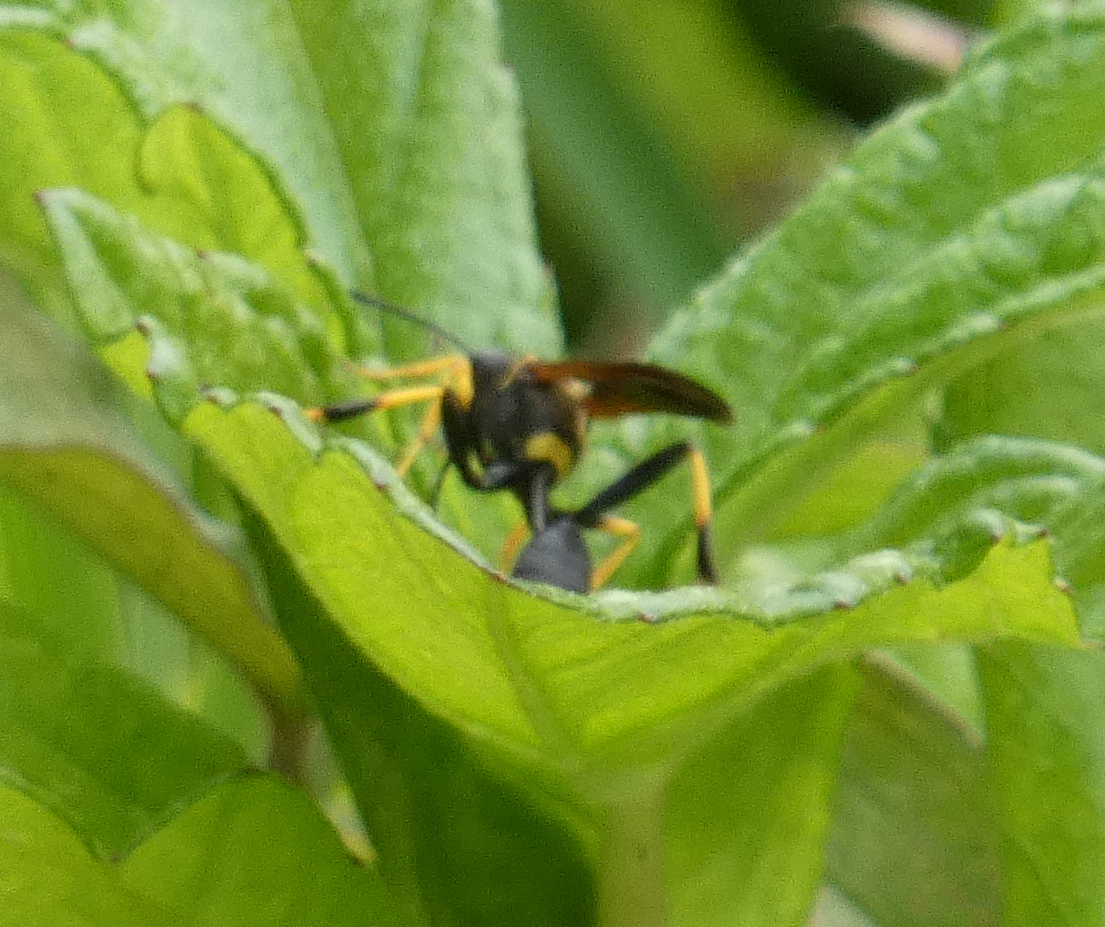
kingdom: Animalia
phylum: Arthropoda
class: Insecta
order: Hymenoptera
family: Sphecidae
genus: Sceliphron
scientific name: Sceliphron caementarium
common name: Mud dauber
